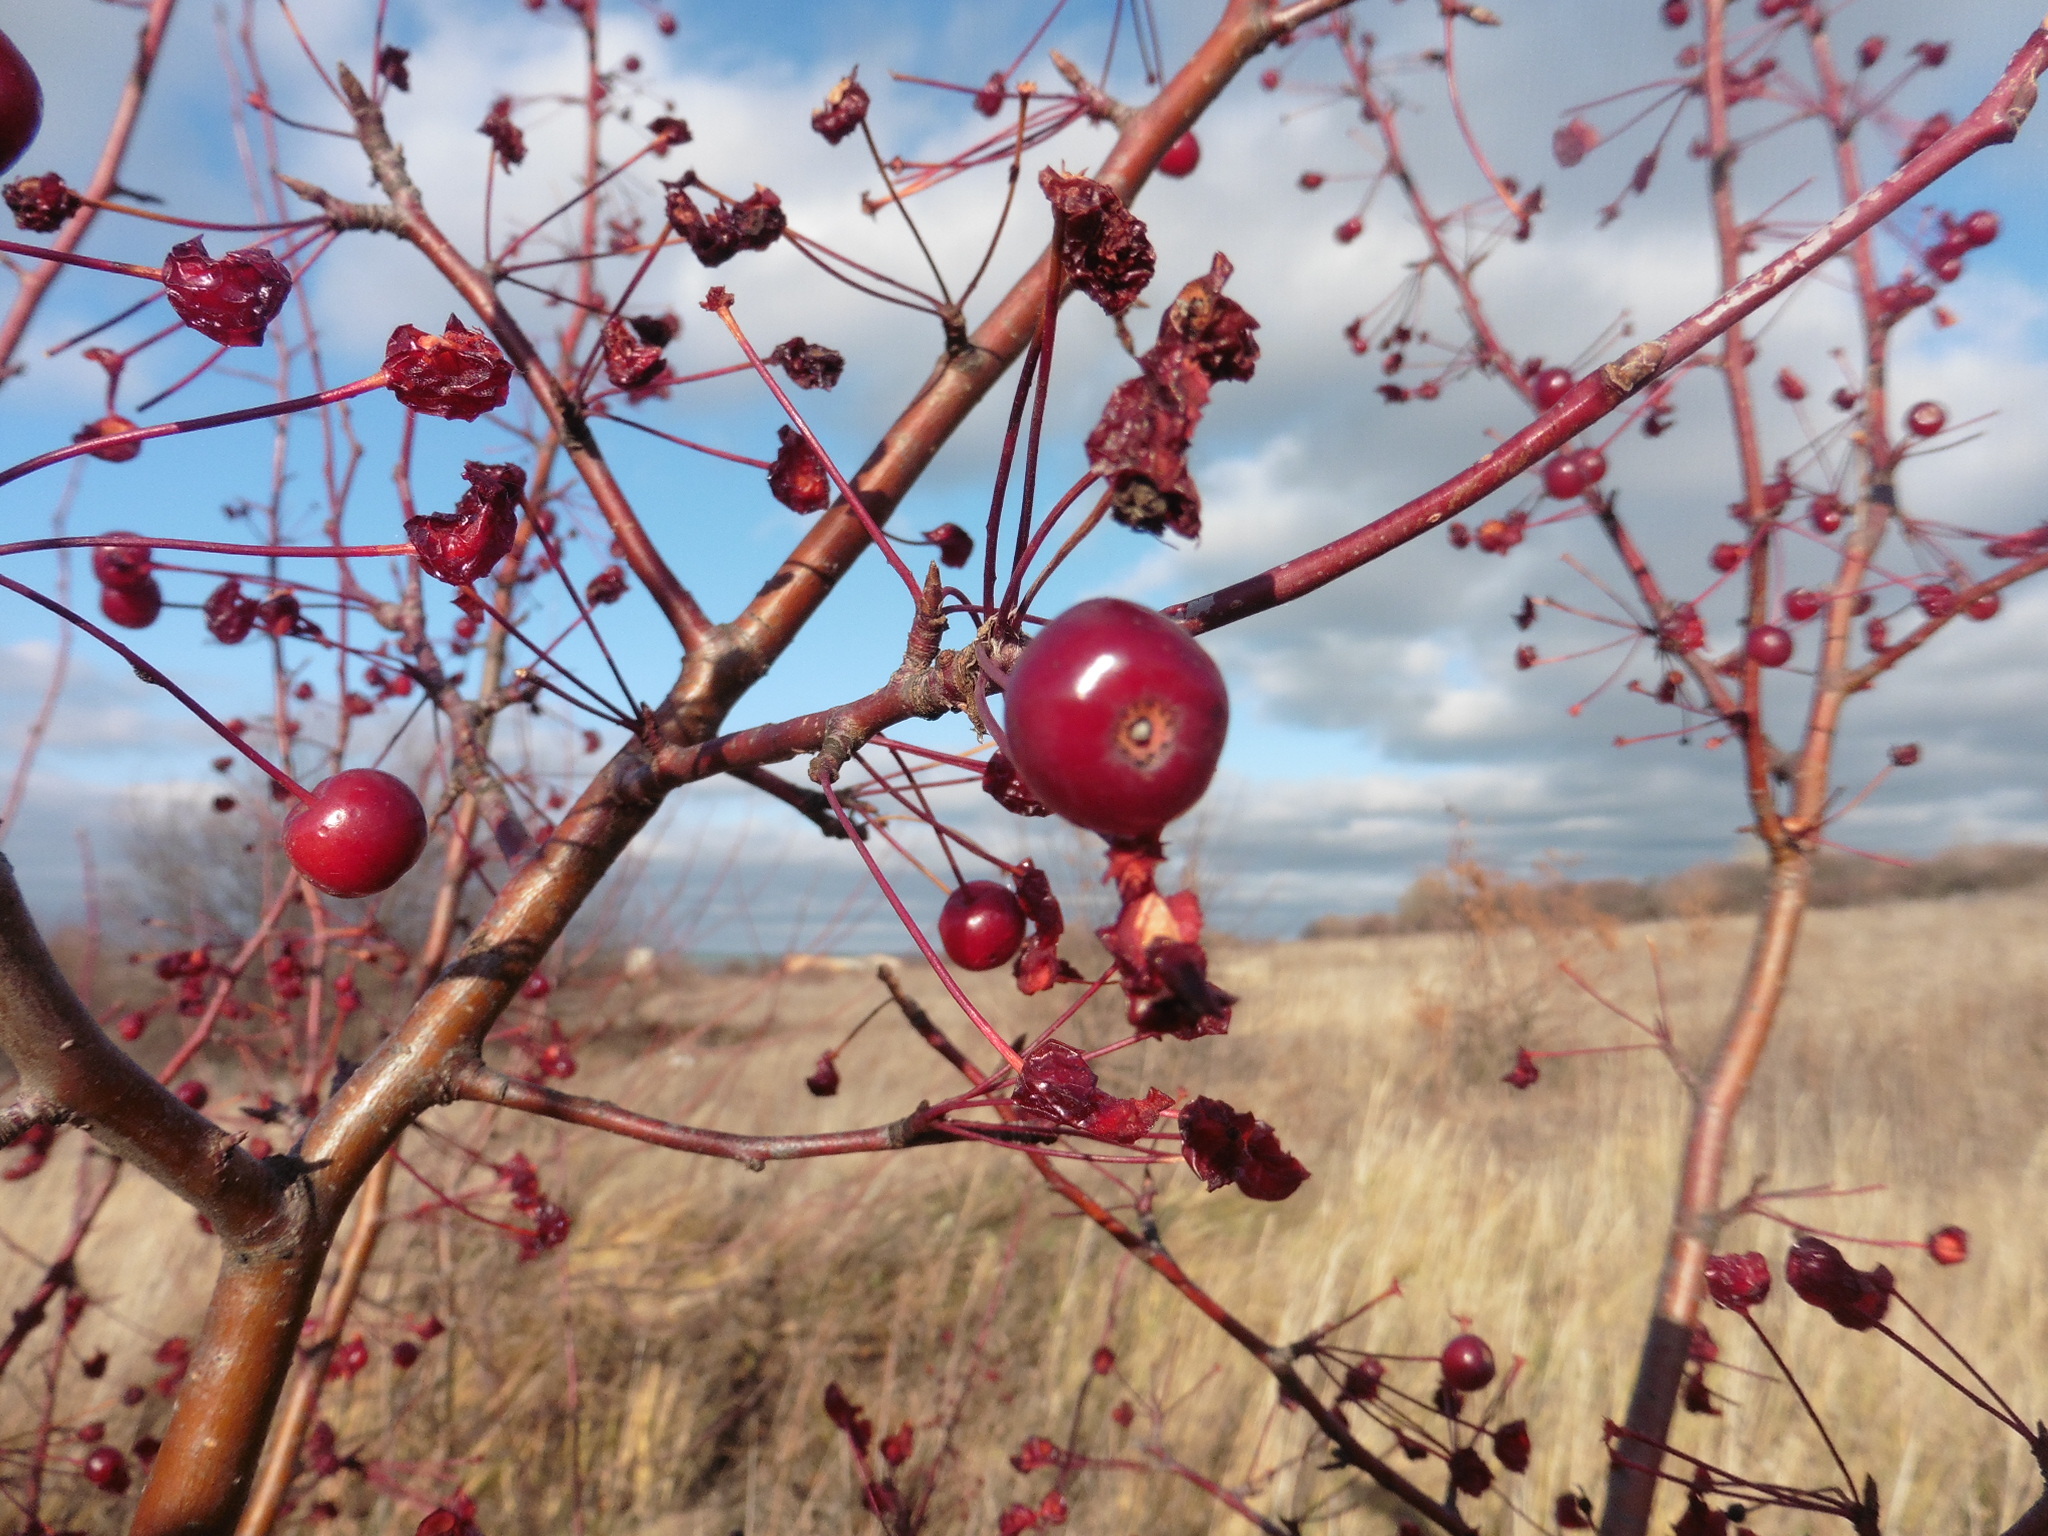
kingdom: Plantae
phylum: Tracheophyta
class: Magnoliopsida
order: Rosales
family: Rosaceae
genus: Malus
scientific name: Malus baccata
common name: Siberian crab
